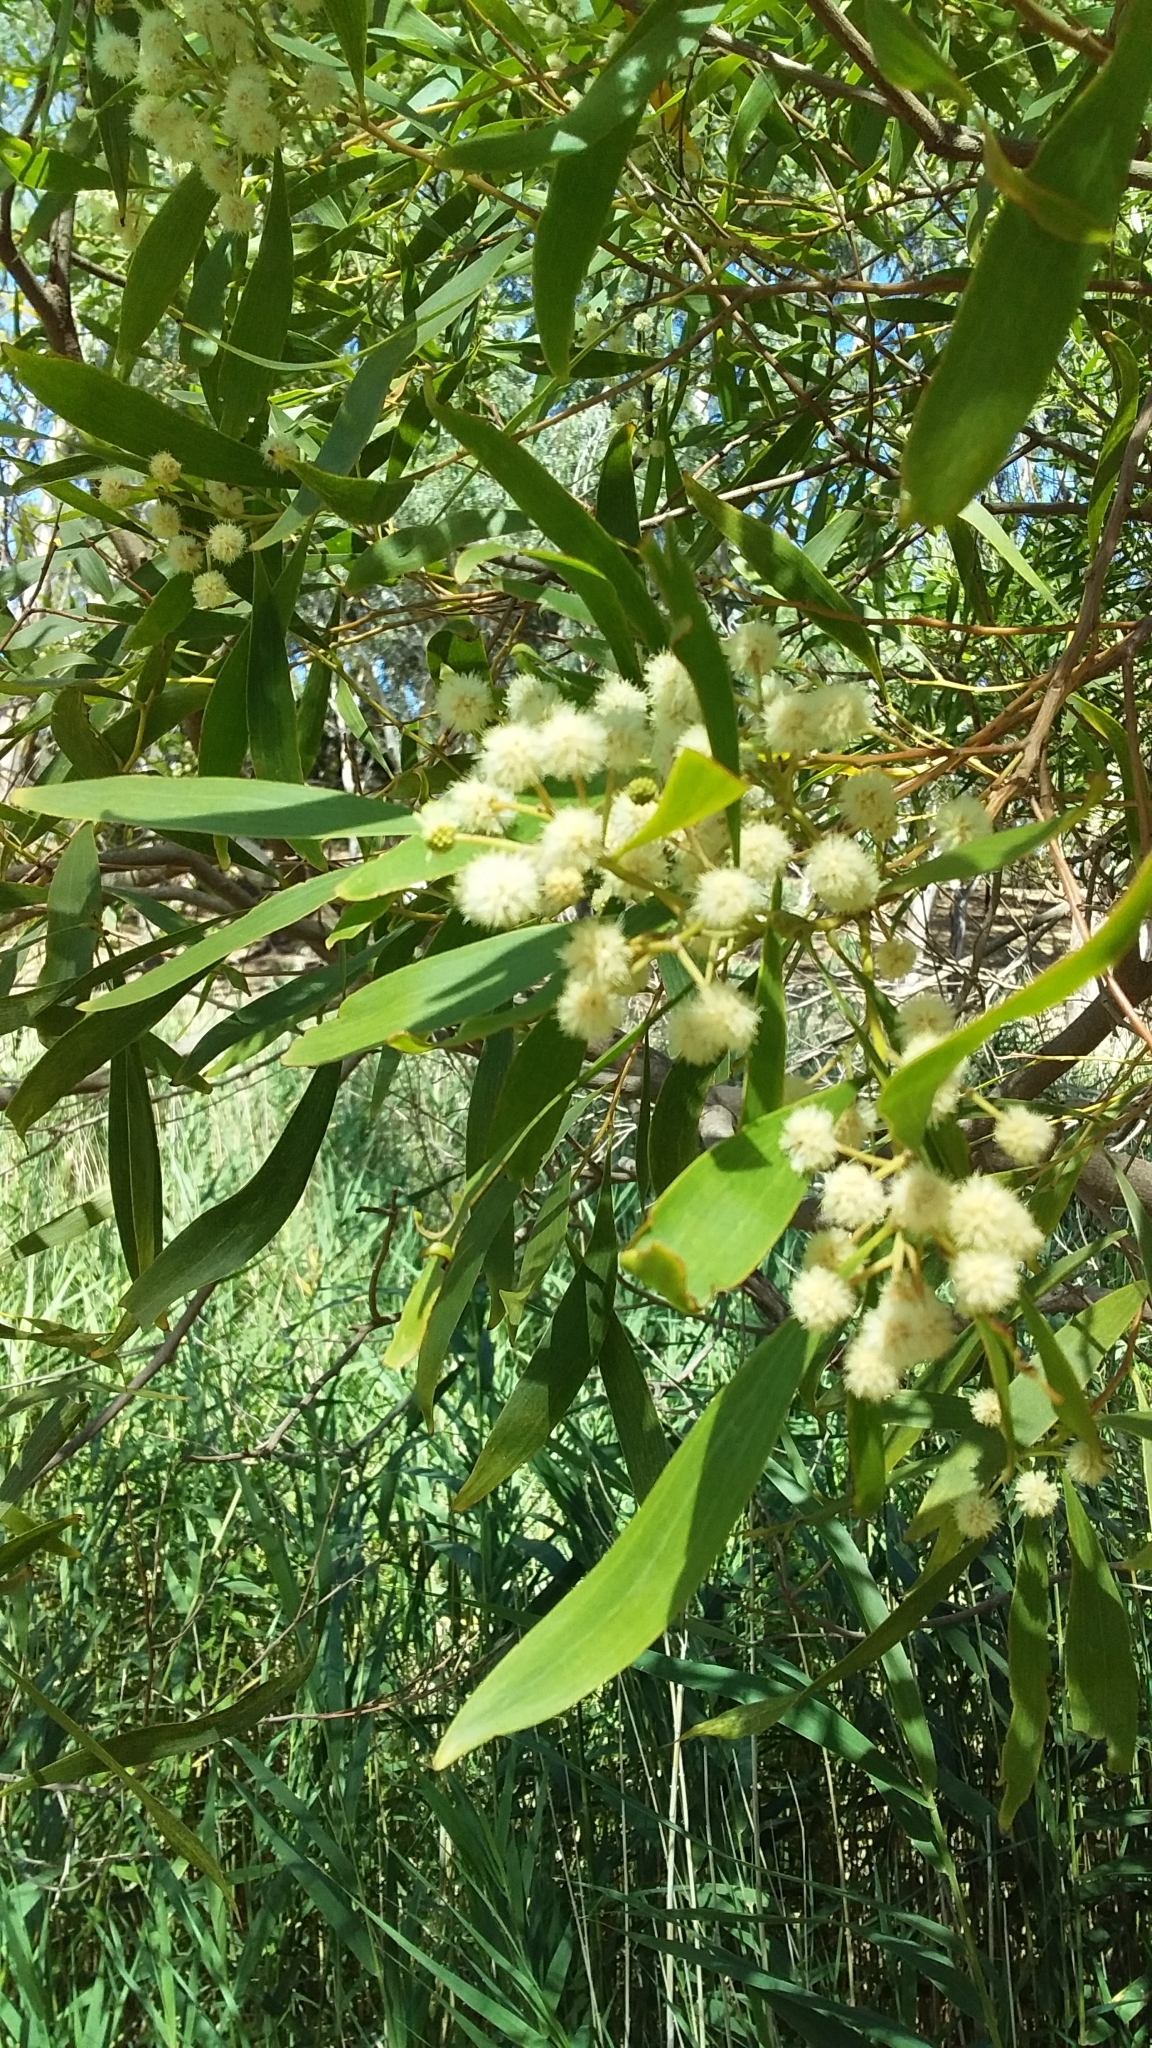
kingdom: Plantae
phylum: Tracheophyta
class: Magnoliopsida
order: Fabales
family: Fabaceae
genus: Acacia
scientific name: Acacia melanoxylon
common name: Blackwood
